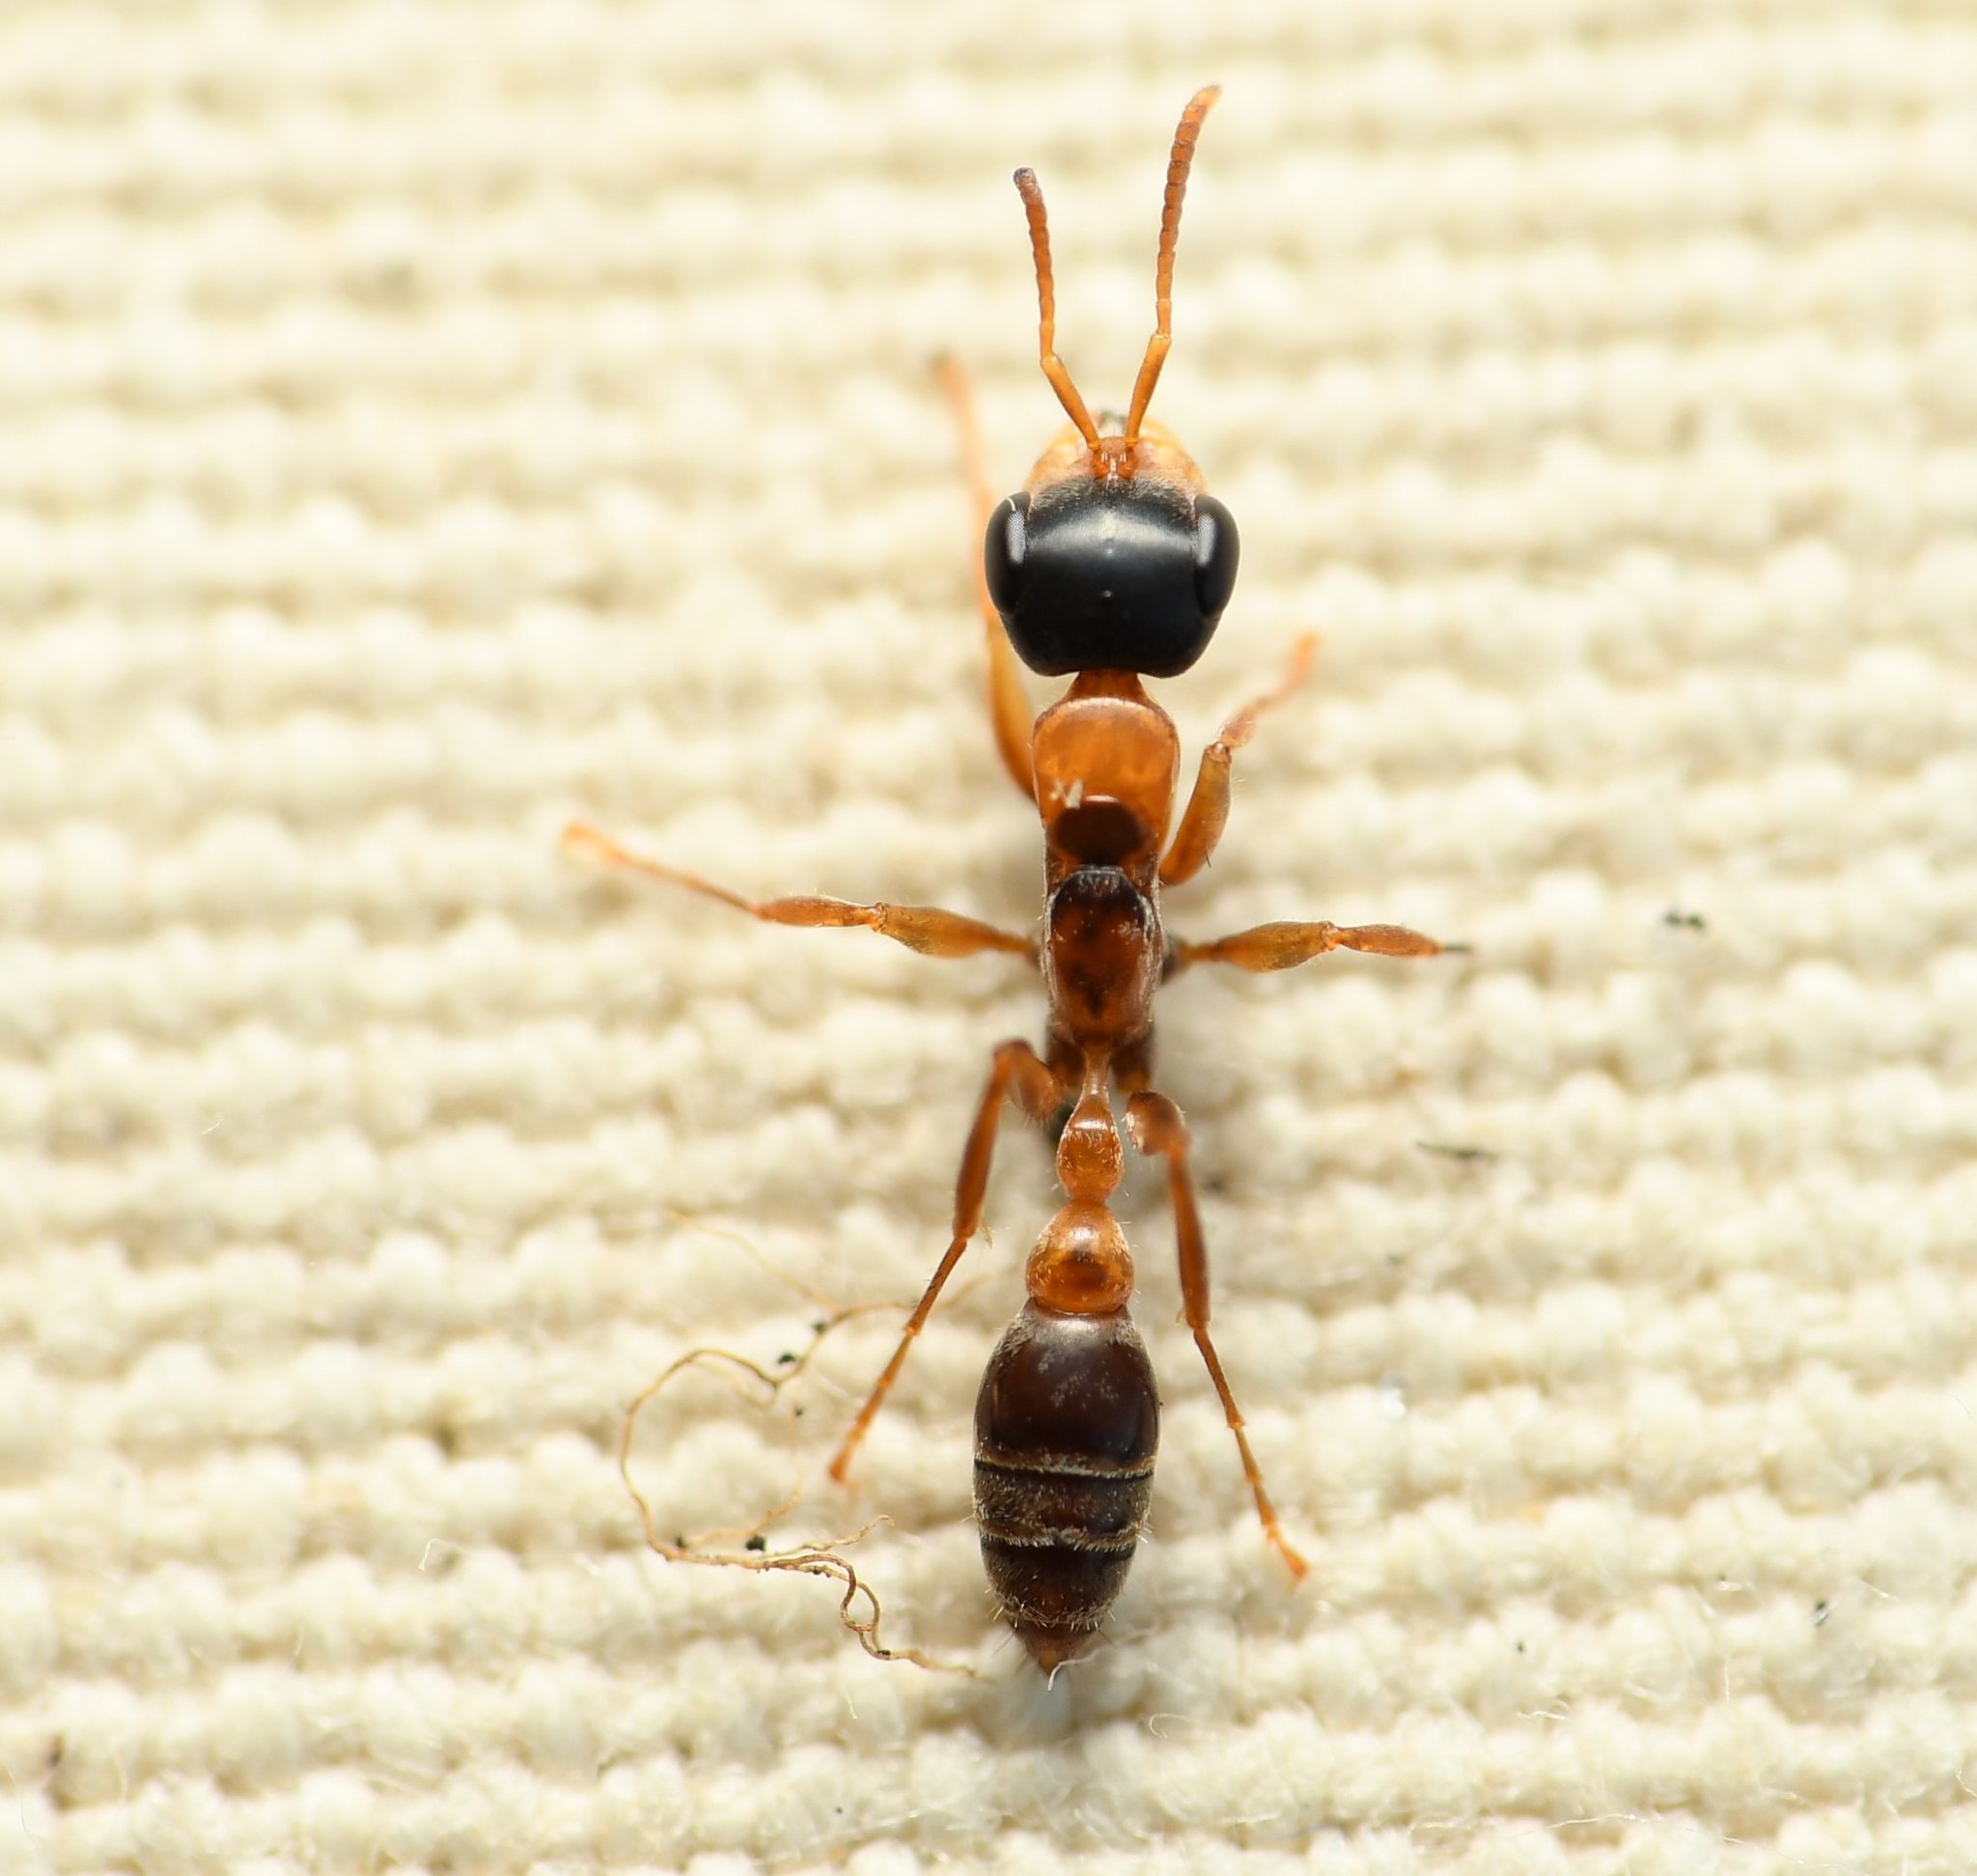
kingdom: Animalia
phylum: Arthropoda
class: Insecta
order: Hymenoptera
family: Formicidae
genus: Pseudomyrmex
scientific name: Pseudomyrmex gracilis
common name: Graceful twig ant
